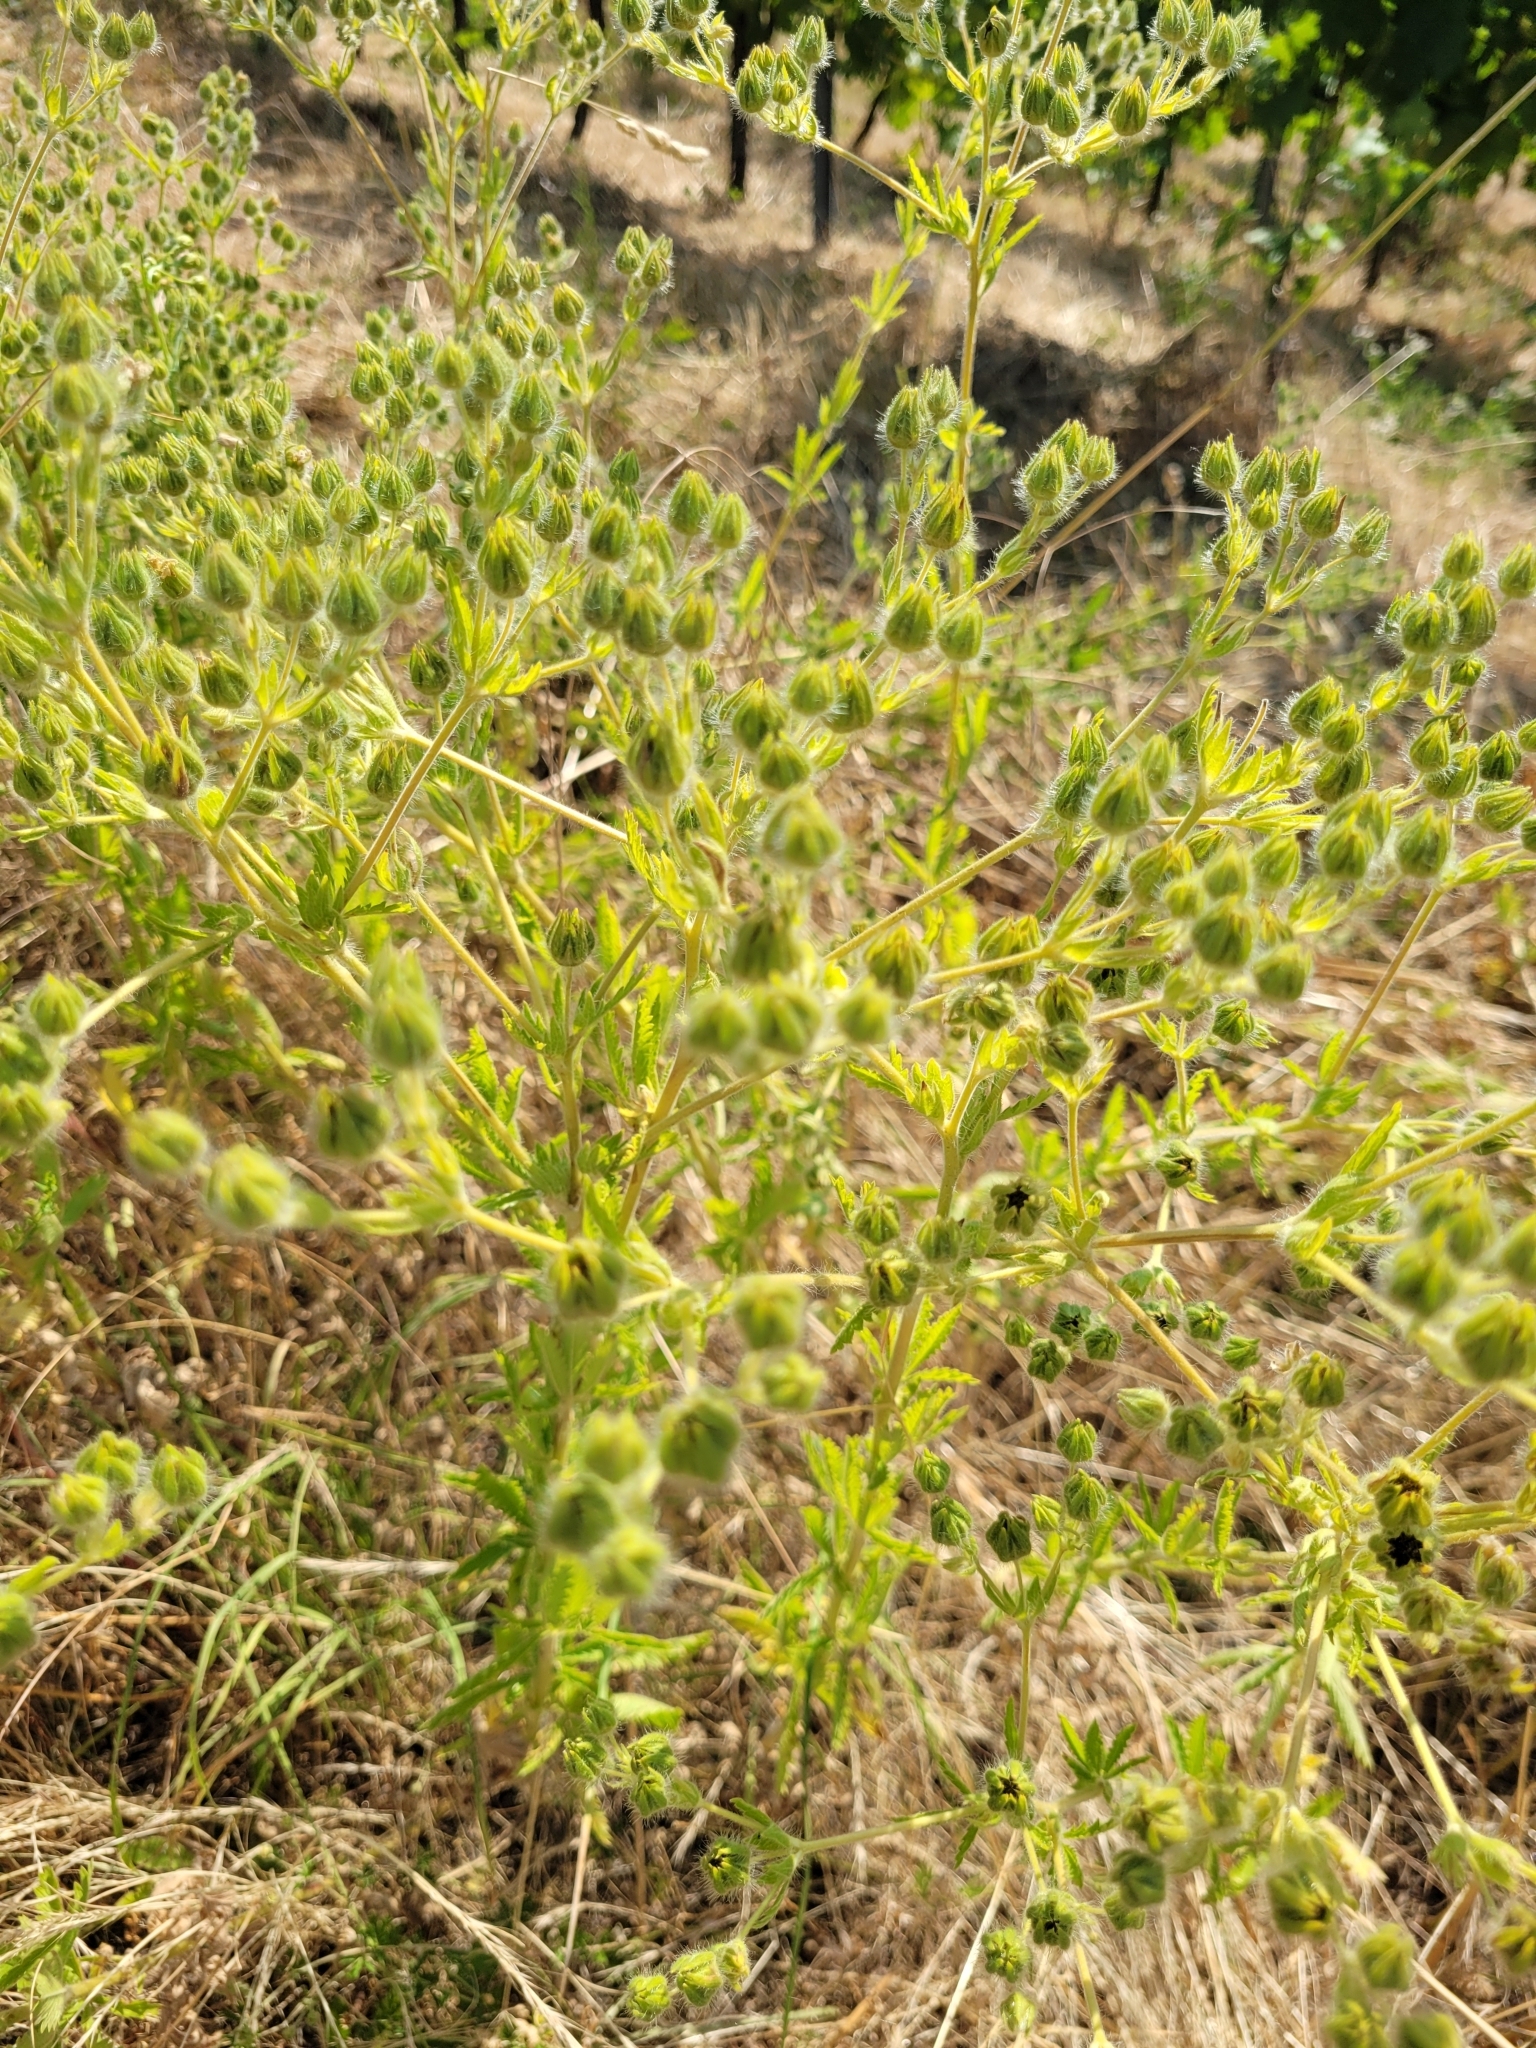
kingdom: Plantae
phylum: Tracheophyta
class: Magnoliopsida
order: Rosales
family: Rosaceae
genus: Potentilla
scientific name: Potentilla recta
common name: Sulphur cinquefoil
